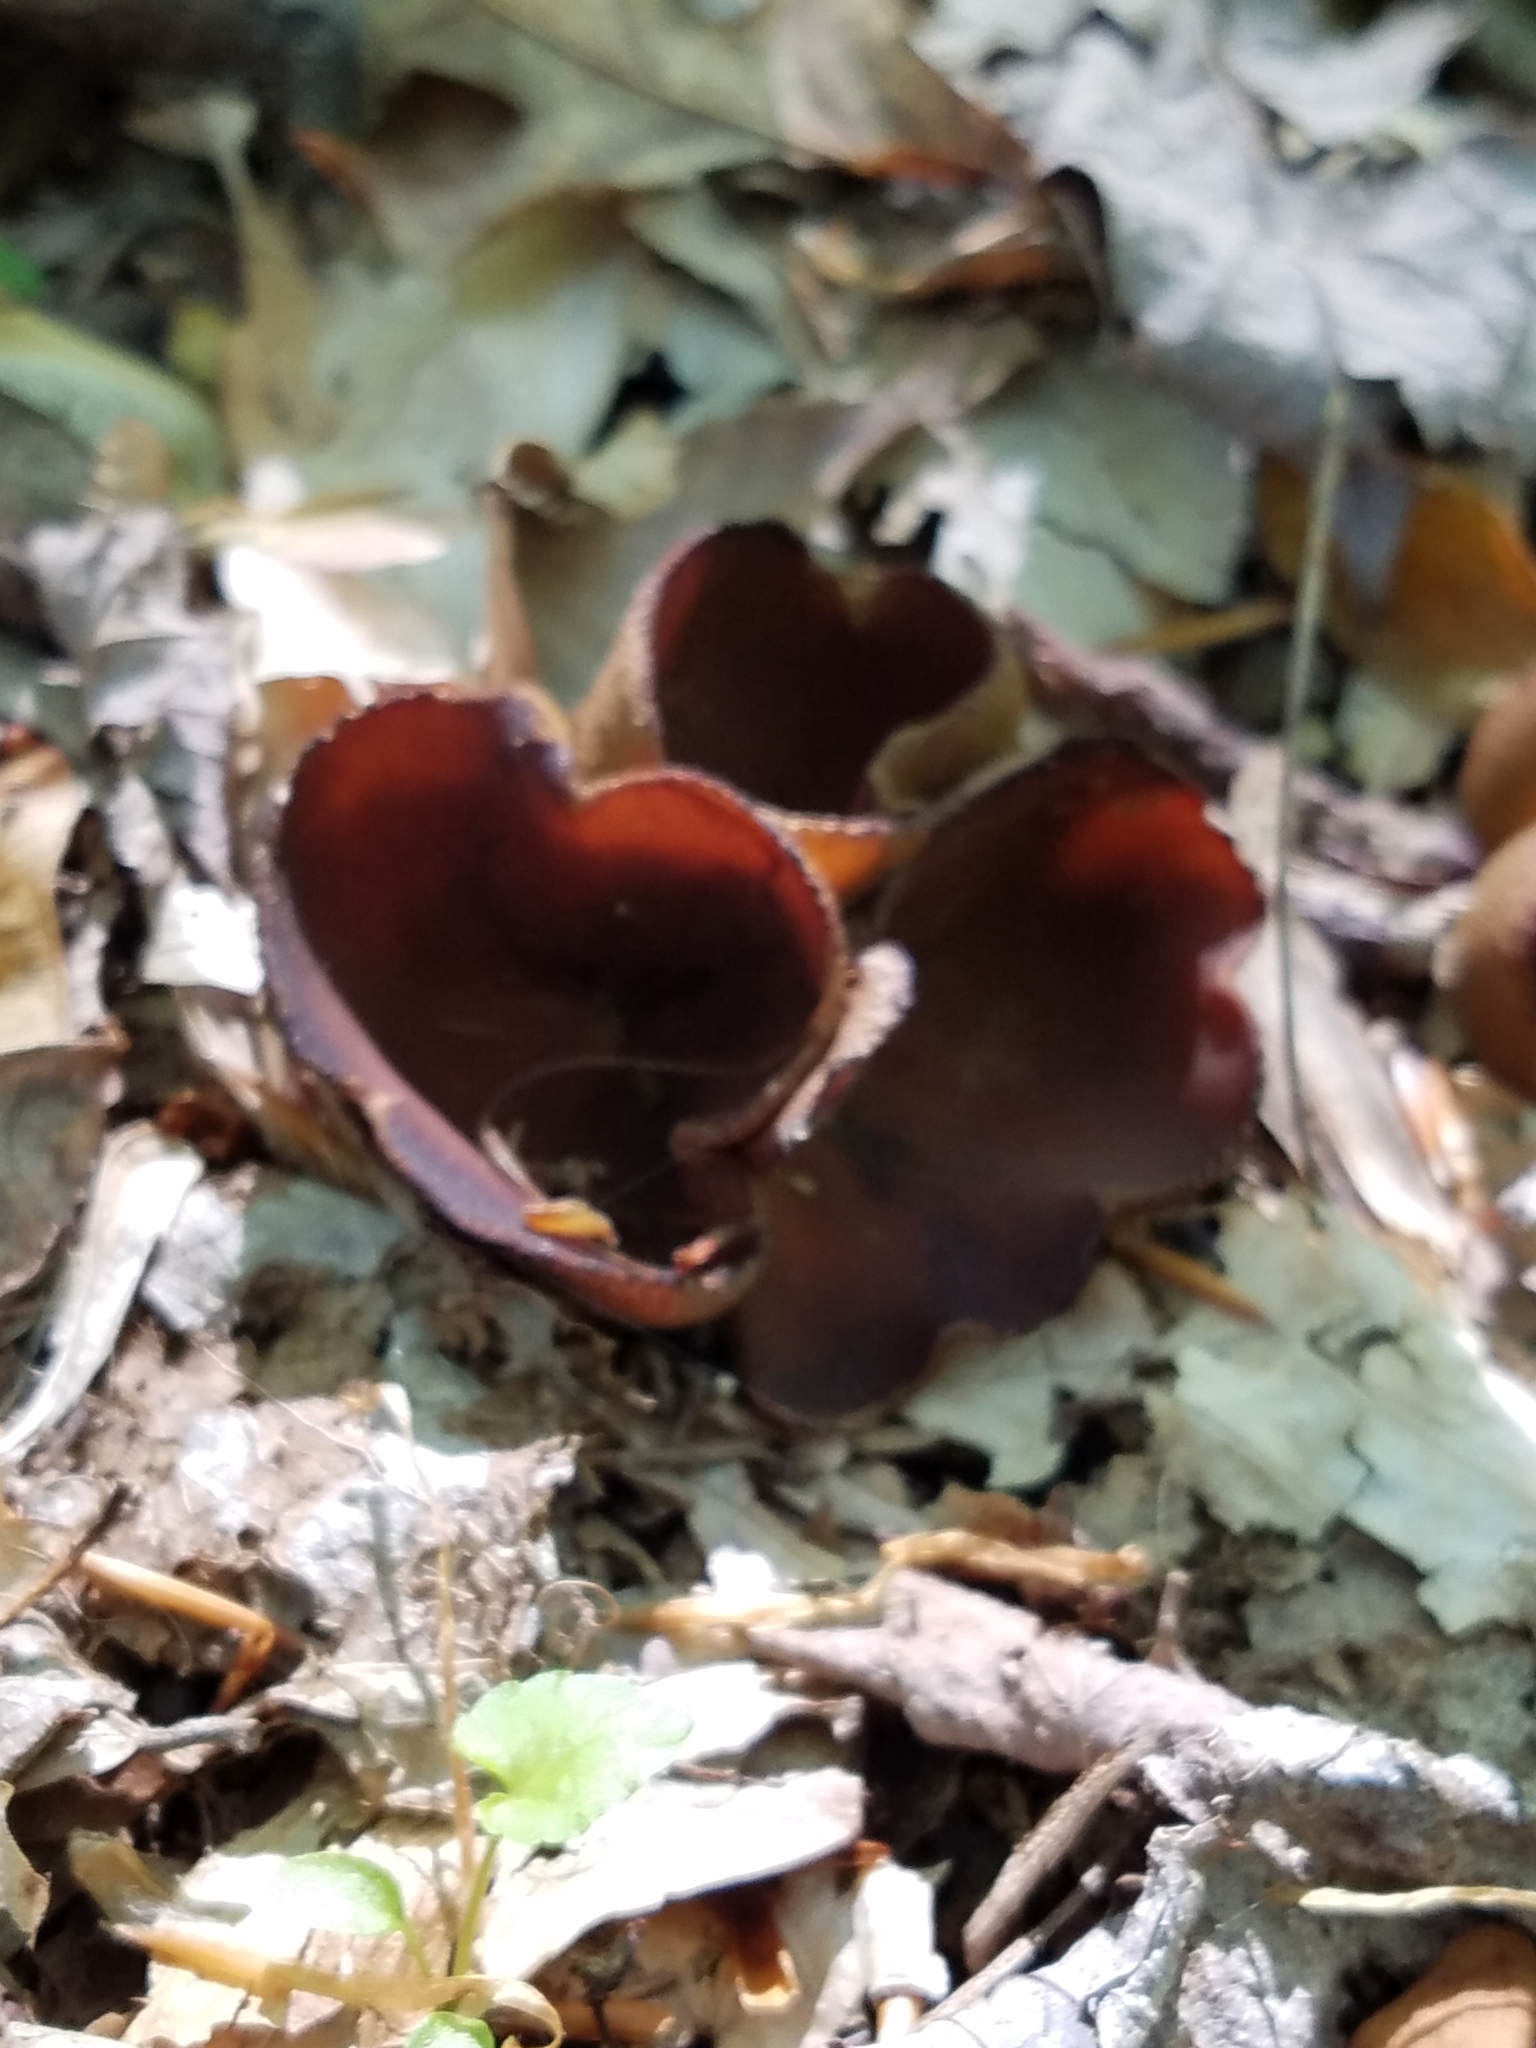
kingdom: Fungi
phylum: Ascomycota
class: Pezizomycetes
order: Pezizales
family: Pezizaceae
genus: Phylloscypha
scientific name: Phylloscypha phyllogena
